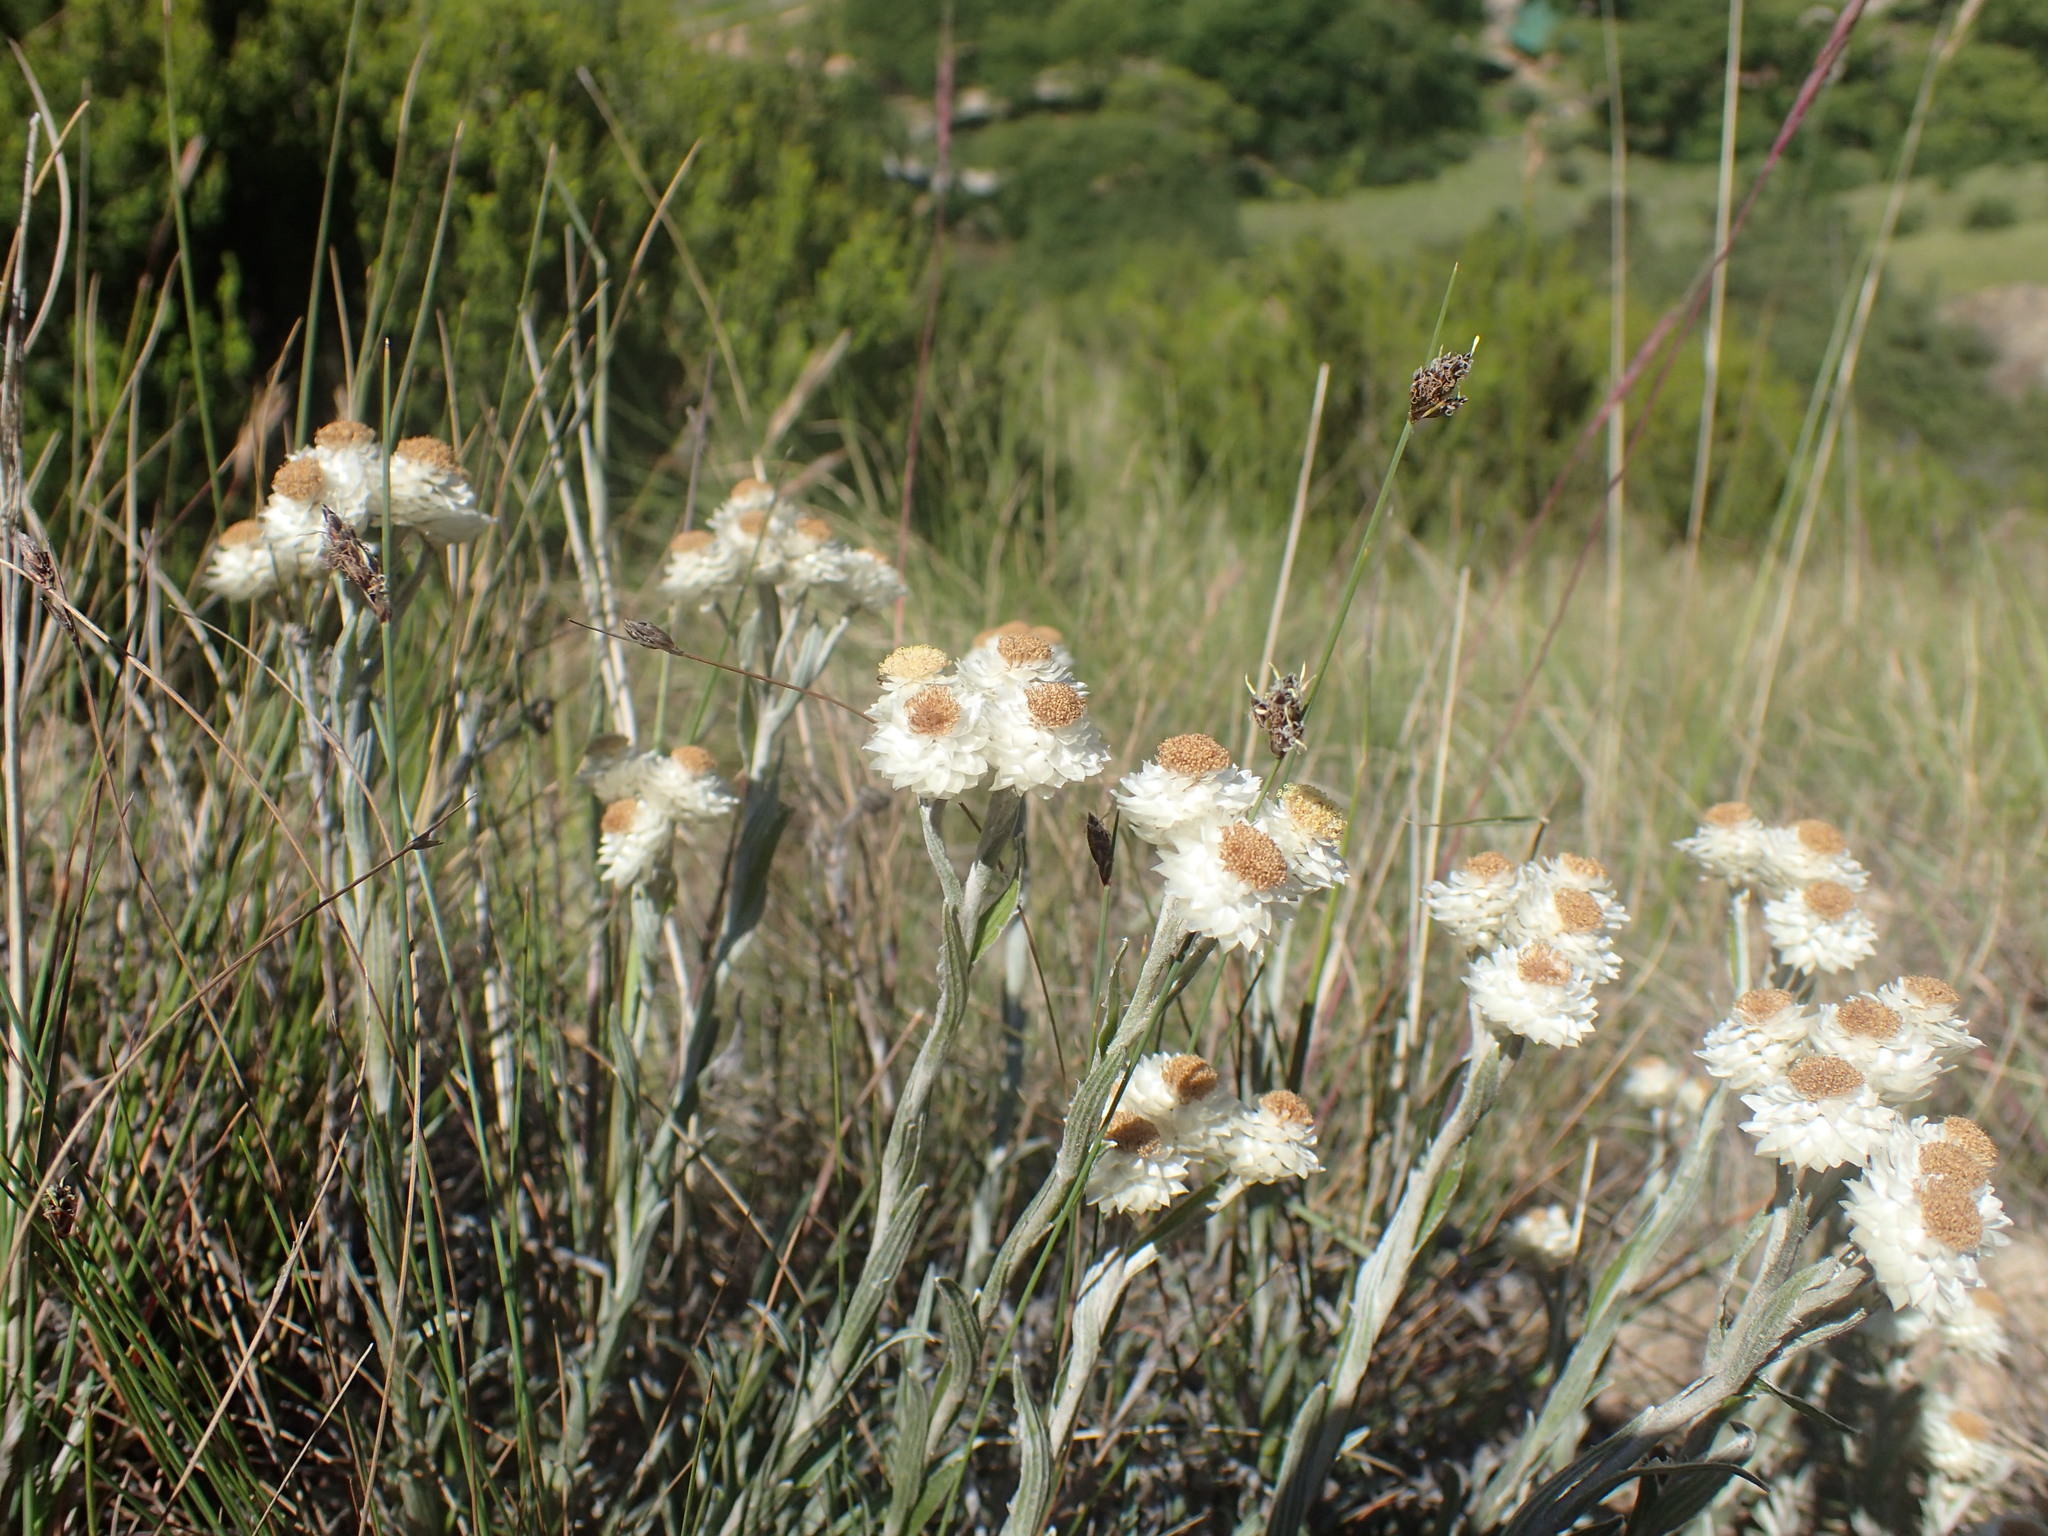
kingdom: Plantae
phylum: Tracheophyta
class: Magnoliopsida
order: Asterales
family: Asteraceae
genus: Helichrysum
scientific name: Helichrysum chionosphaerum
